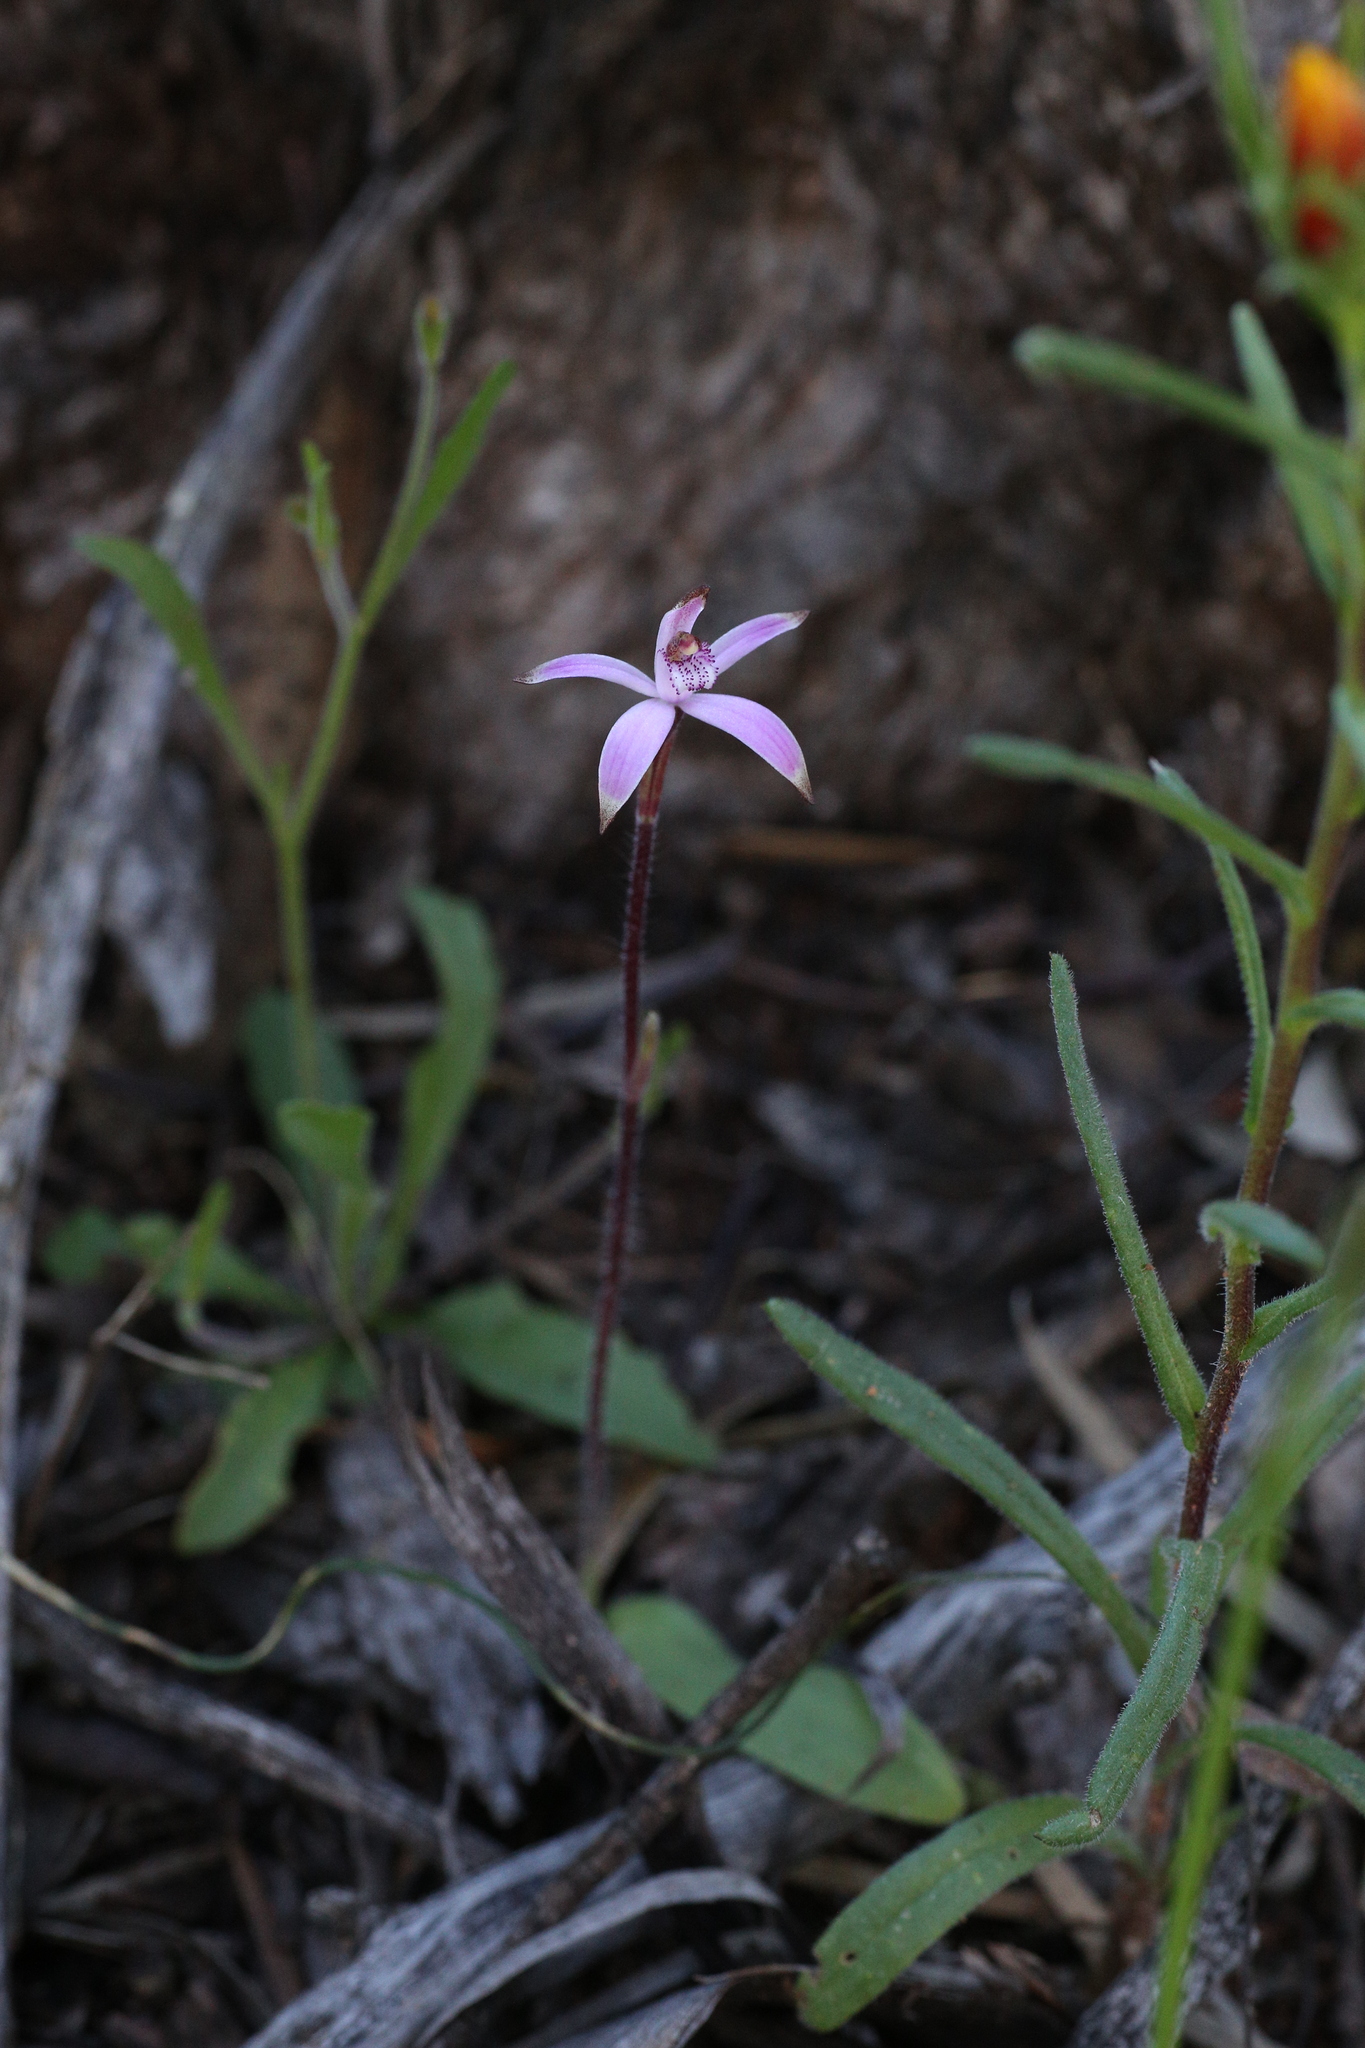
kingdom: Plantae
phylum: Tracheophyta
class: Liliopsida
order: Asparagales
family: Orchidaceae
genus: Caladenia
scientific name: Caladenia hirta
